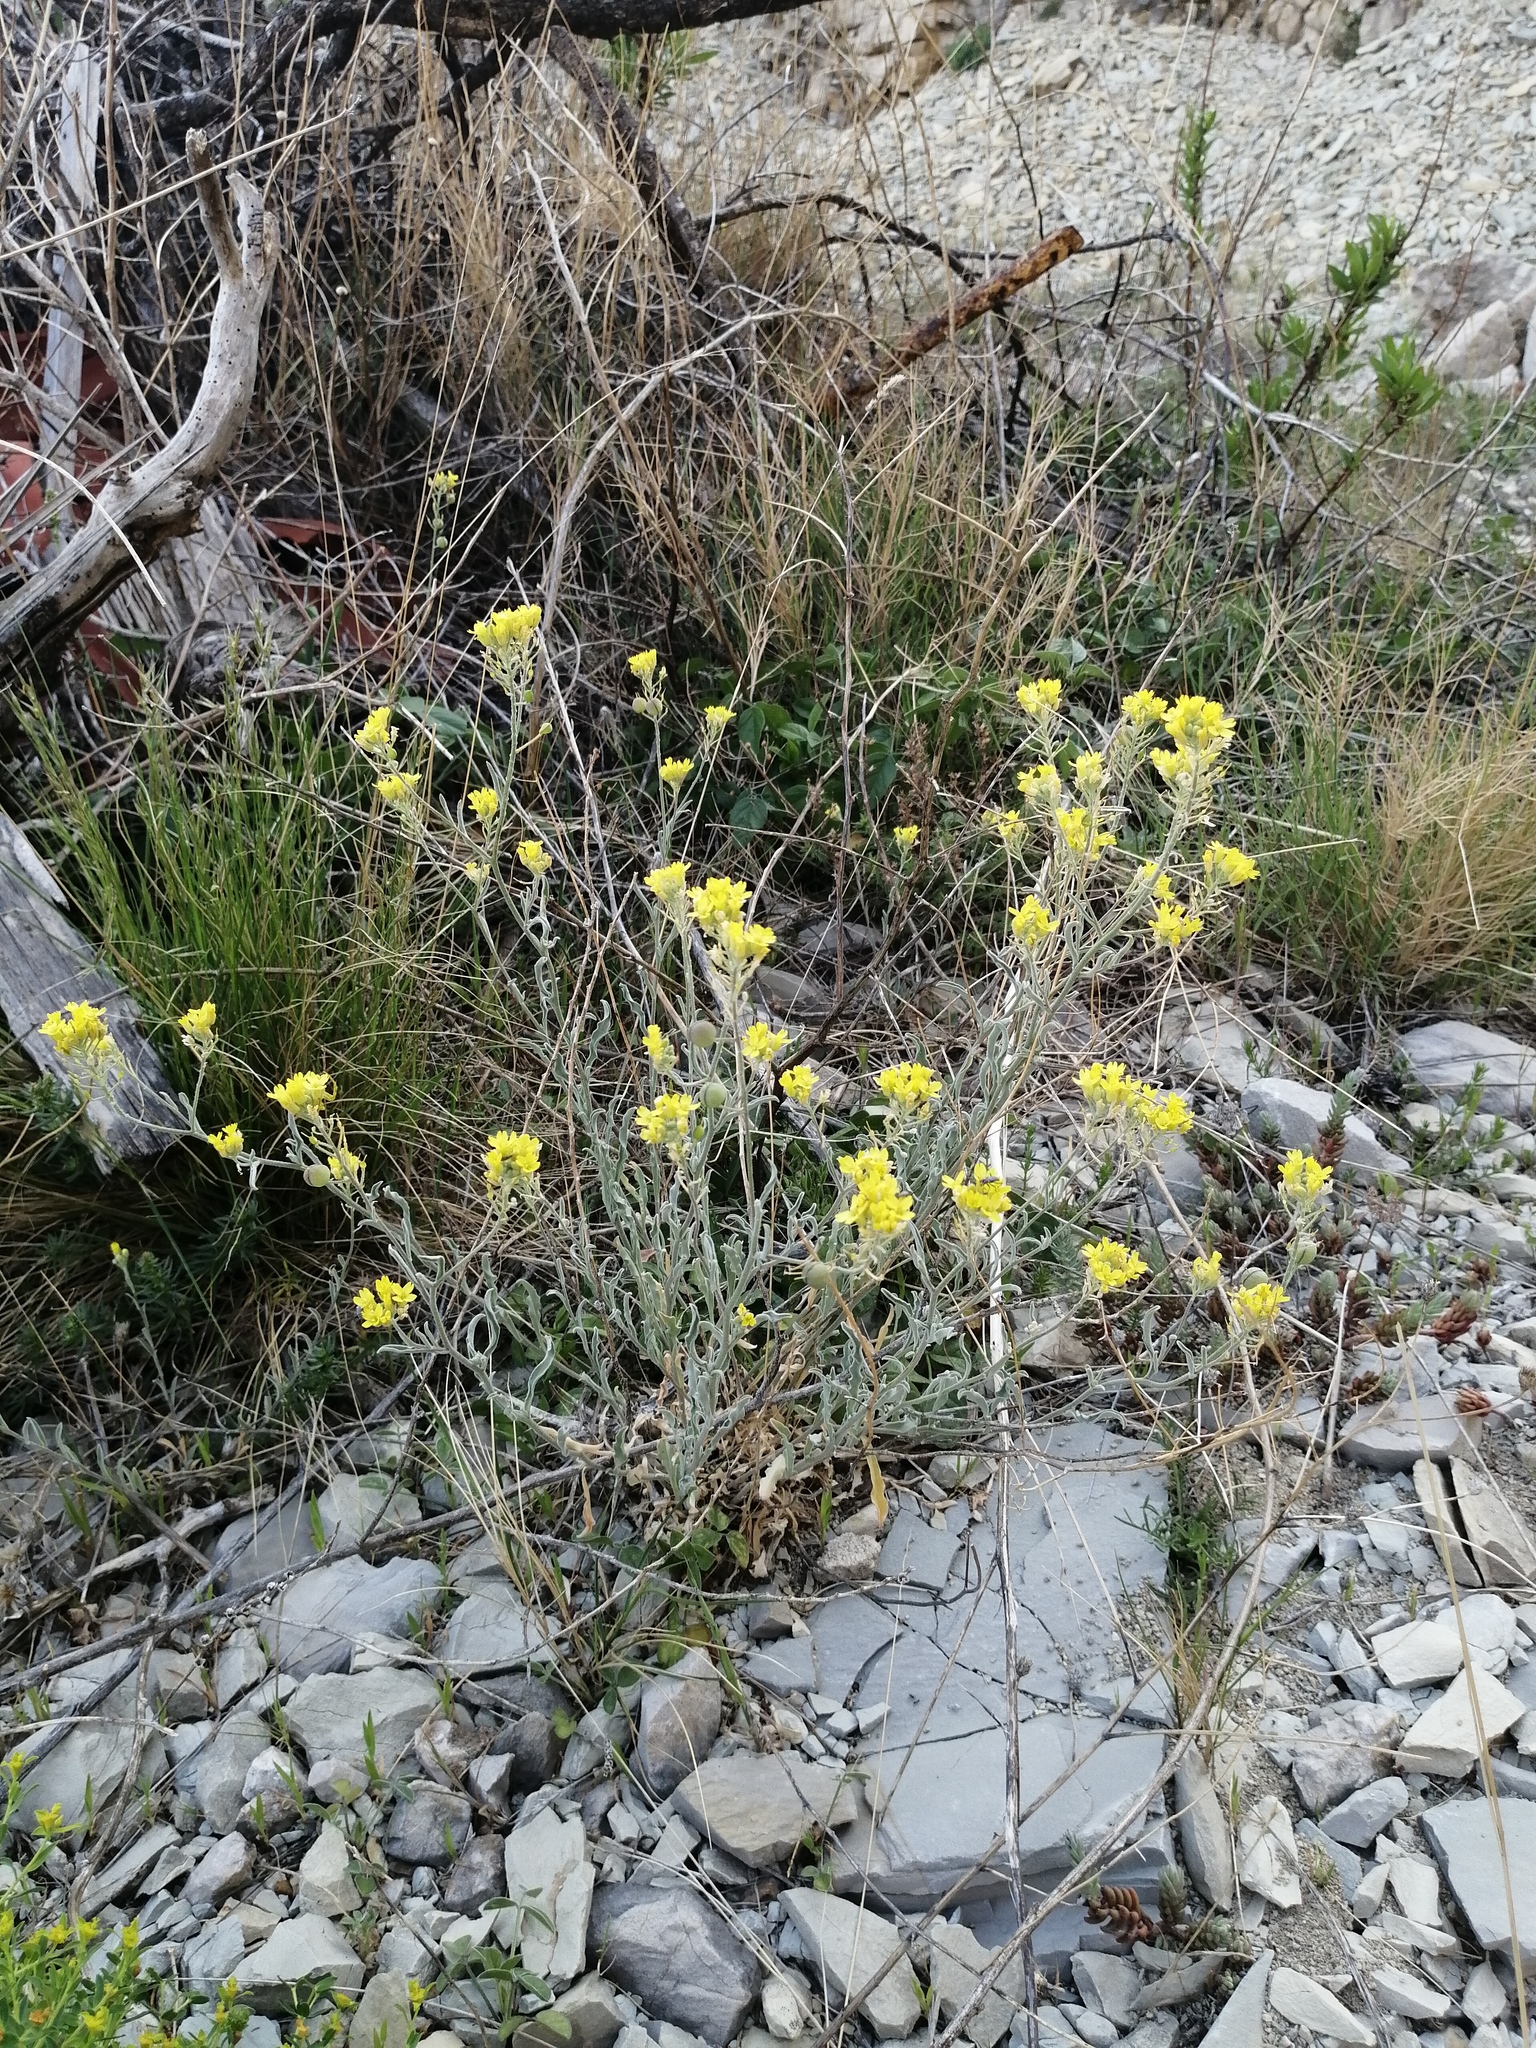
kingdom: Plantae
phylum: Tracheophyta
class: Magnoliopsida
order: Brassicales
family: Brassicaceae
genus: Aurinia
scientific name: Aurinia sinuata
